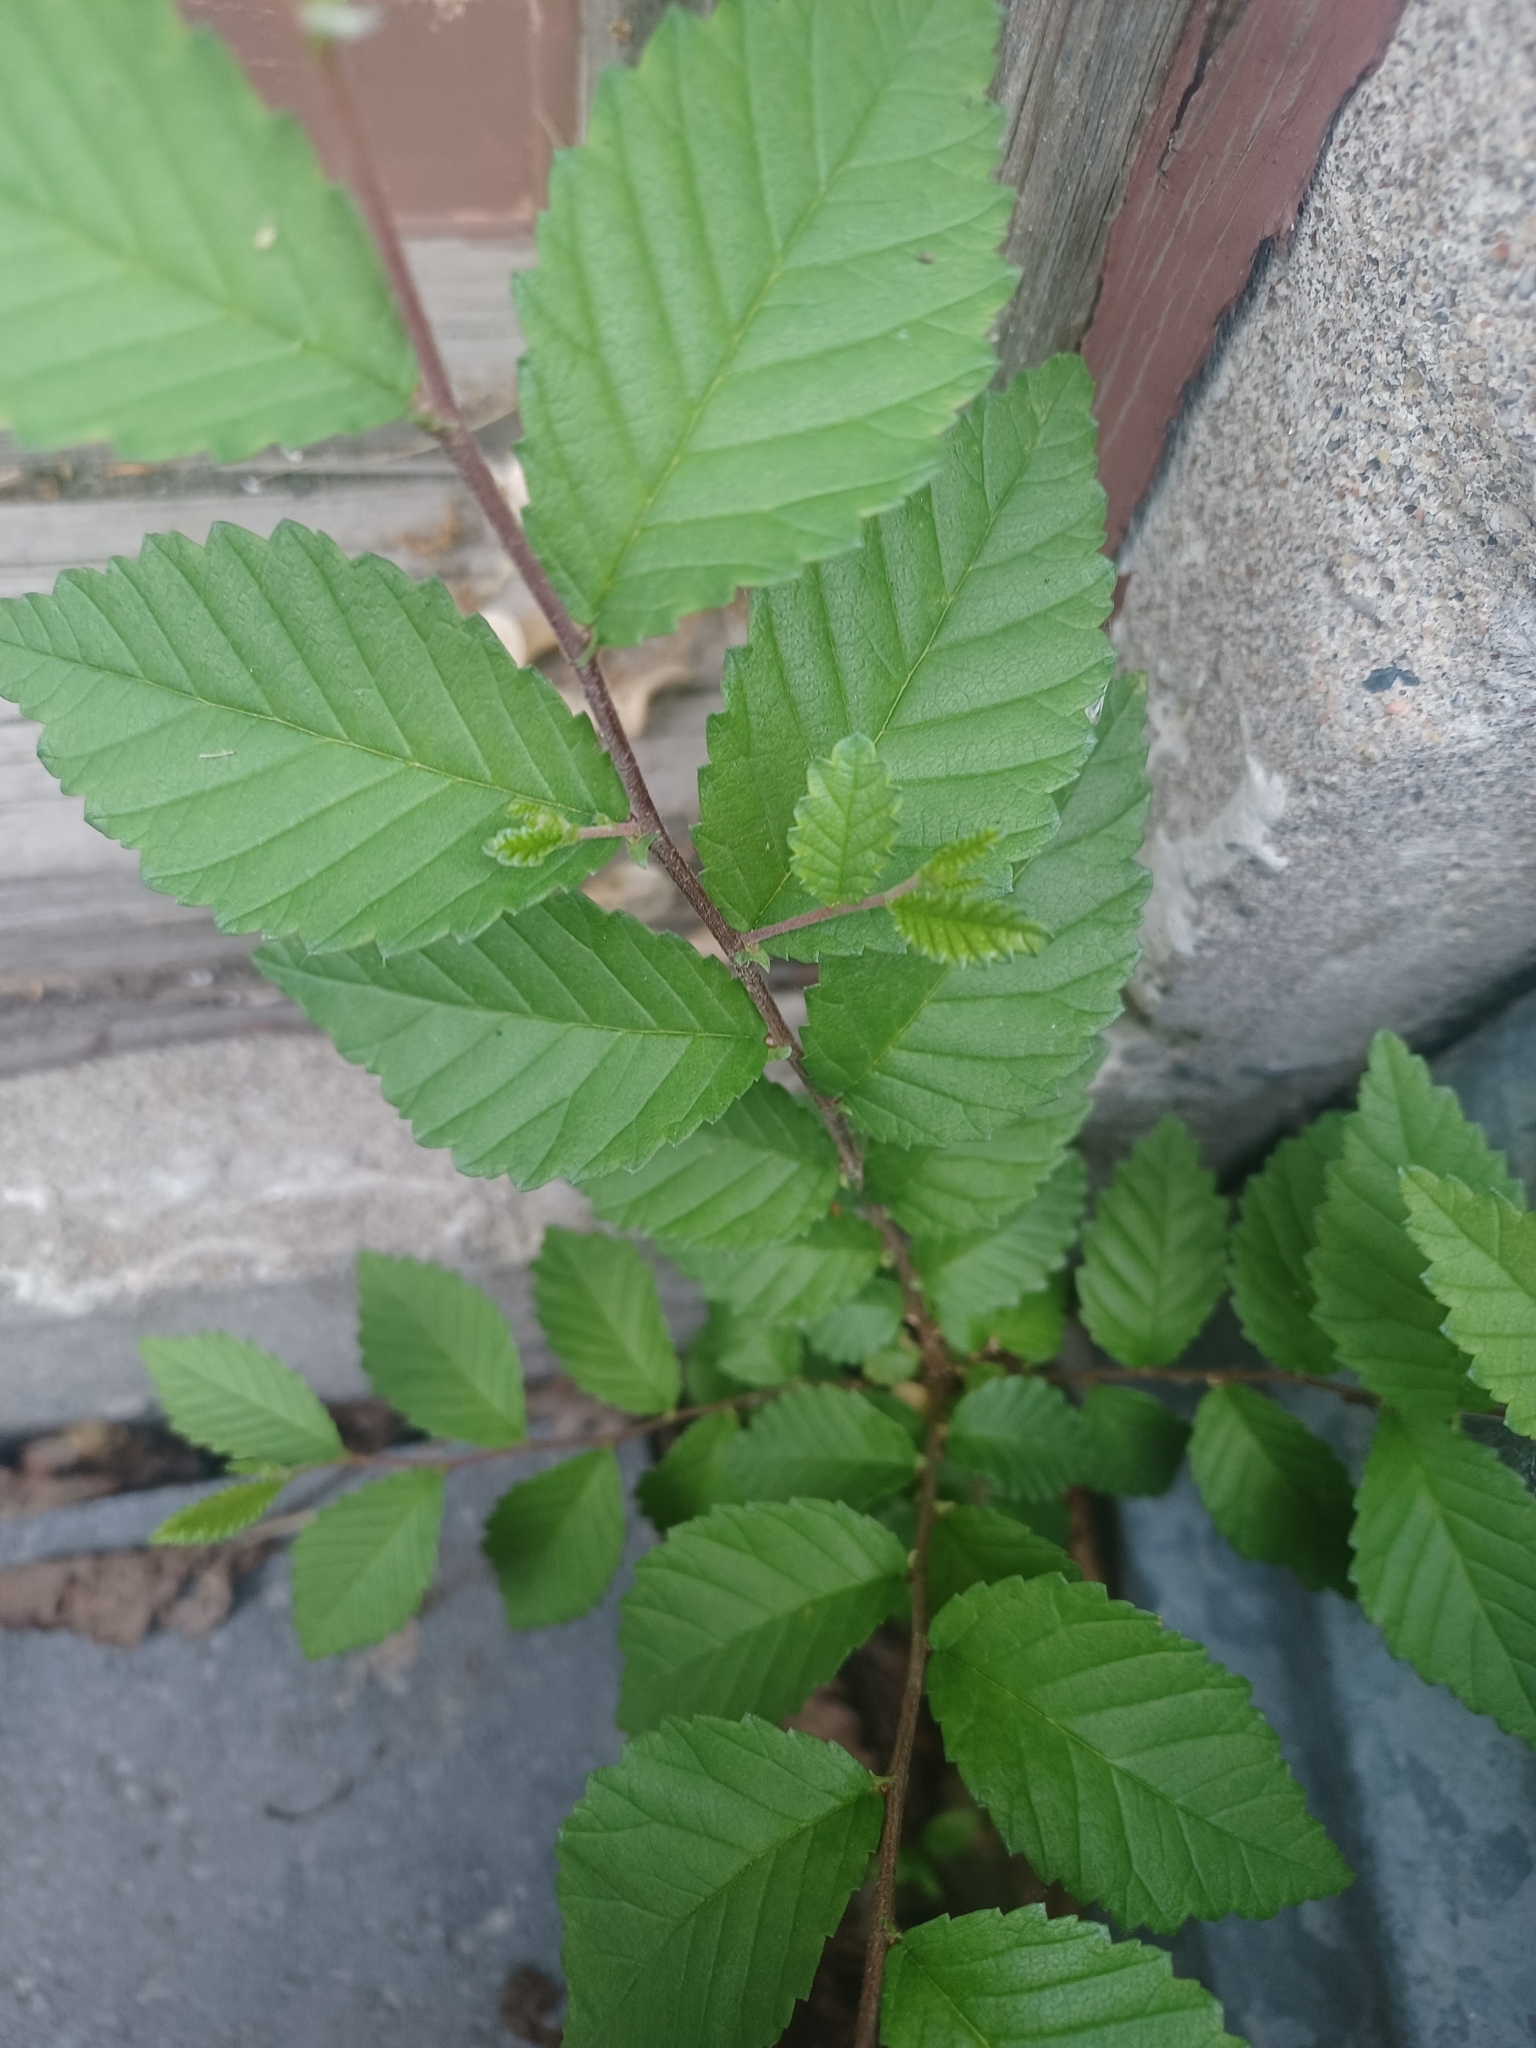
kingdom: Plantae
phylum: Tracheophyta
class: Magnoliopsida
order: Rosales
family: Ulmaceae
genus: Ulmus
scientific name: Ulmus pumila
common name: Siberian elm
